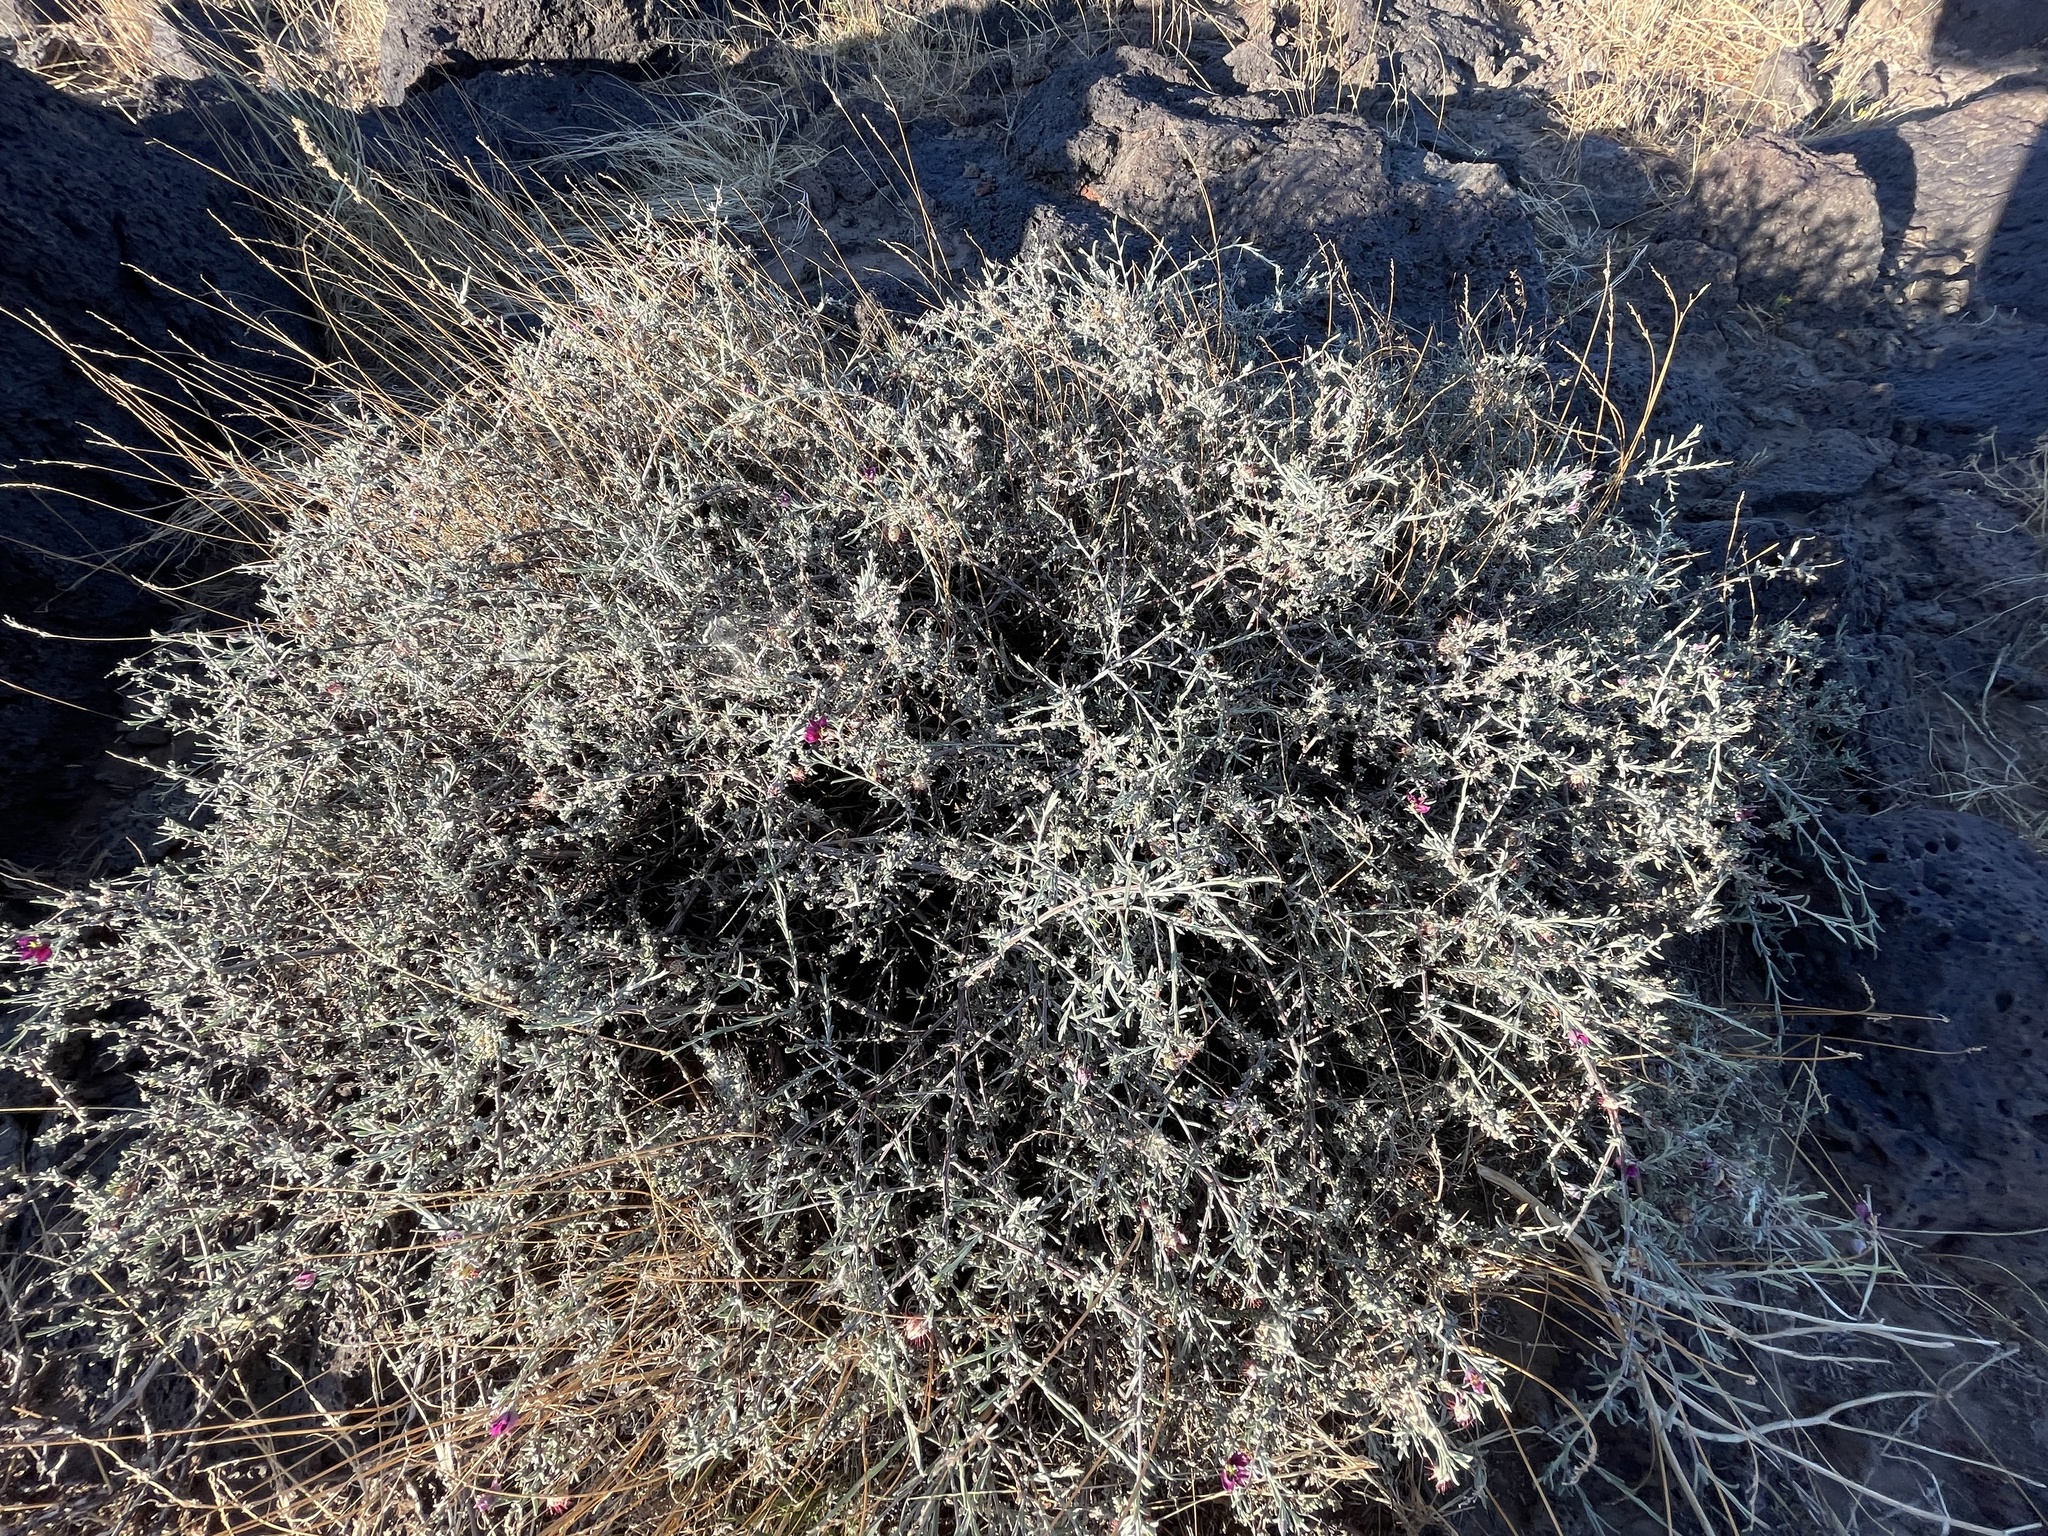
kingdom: Plantae
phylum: Tracheophyta
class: Magnoliopsida
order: Zygophyllales
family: Krameriaceae
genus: Krameria
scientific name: Krameria erecta
